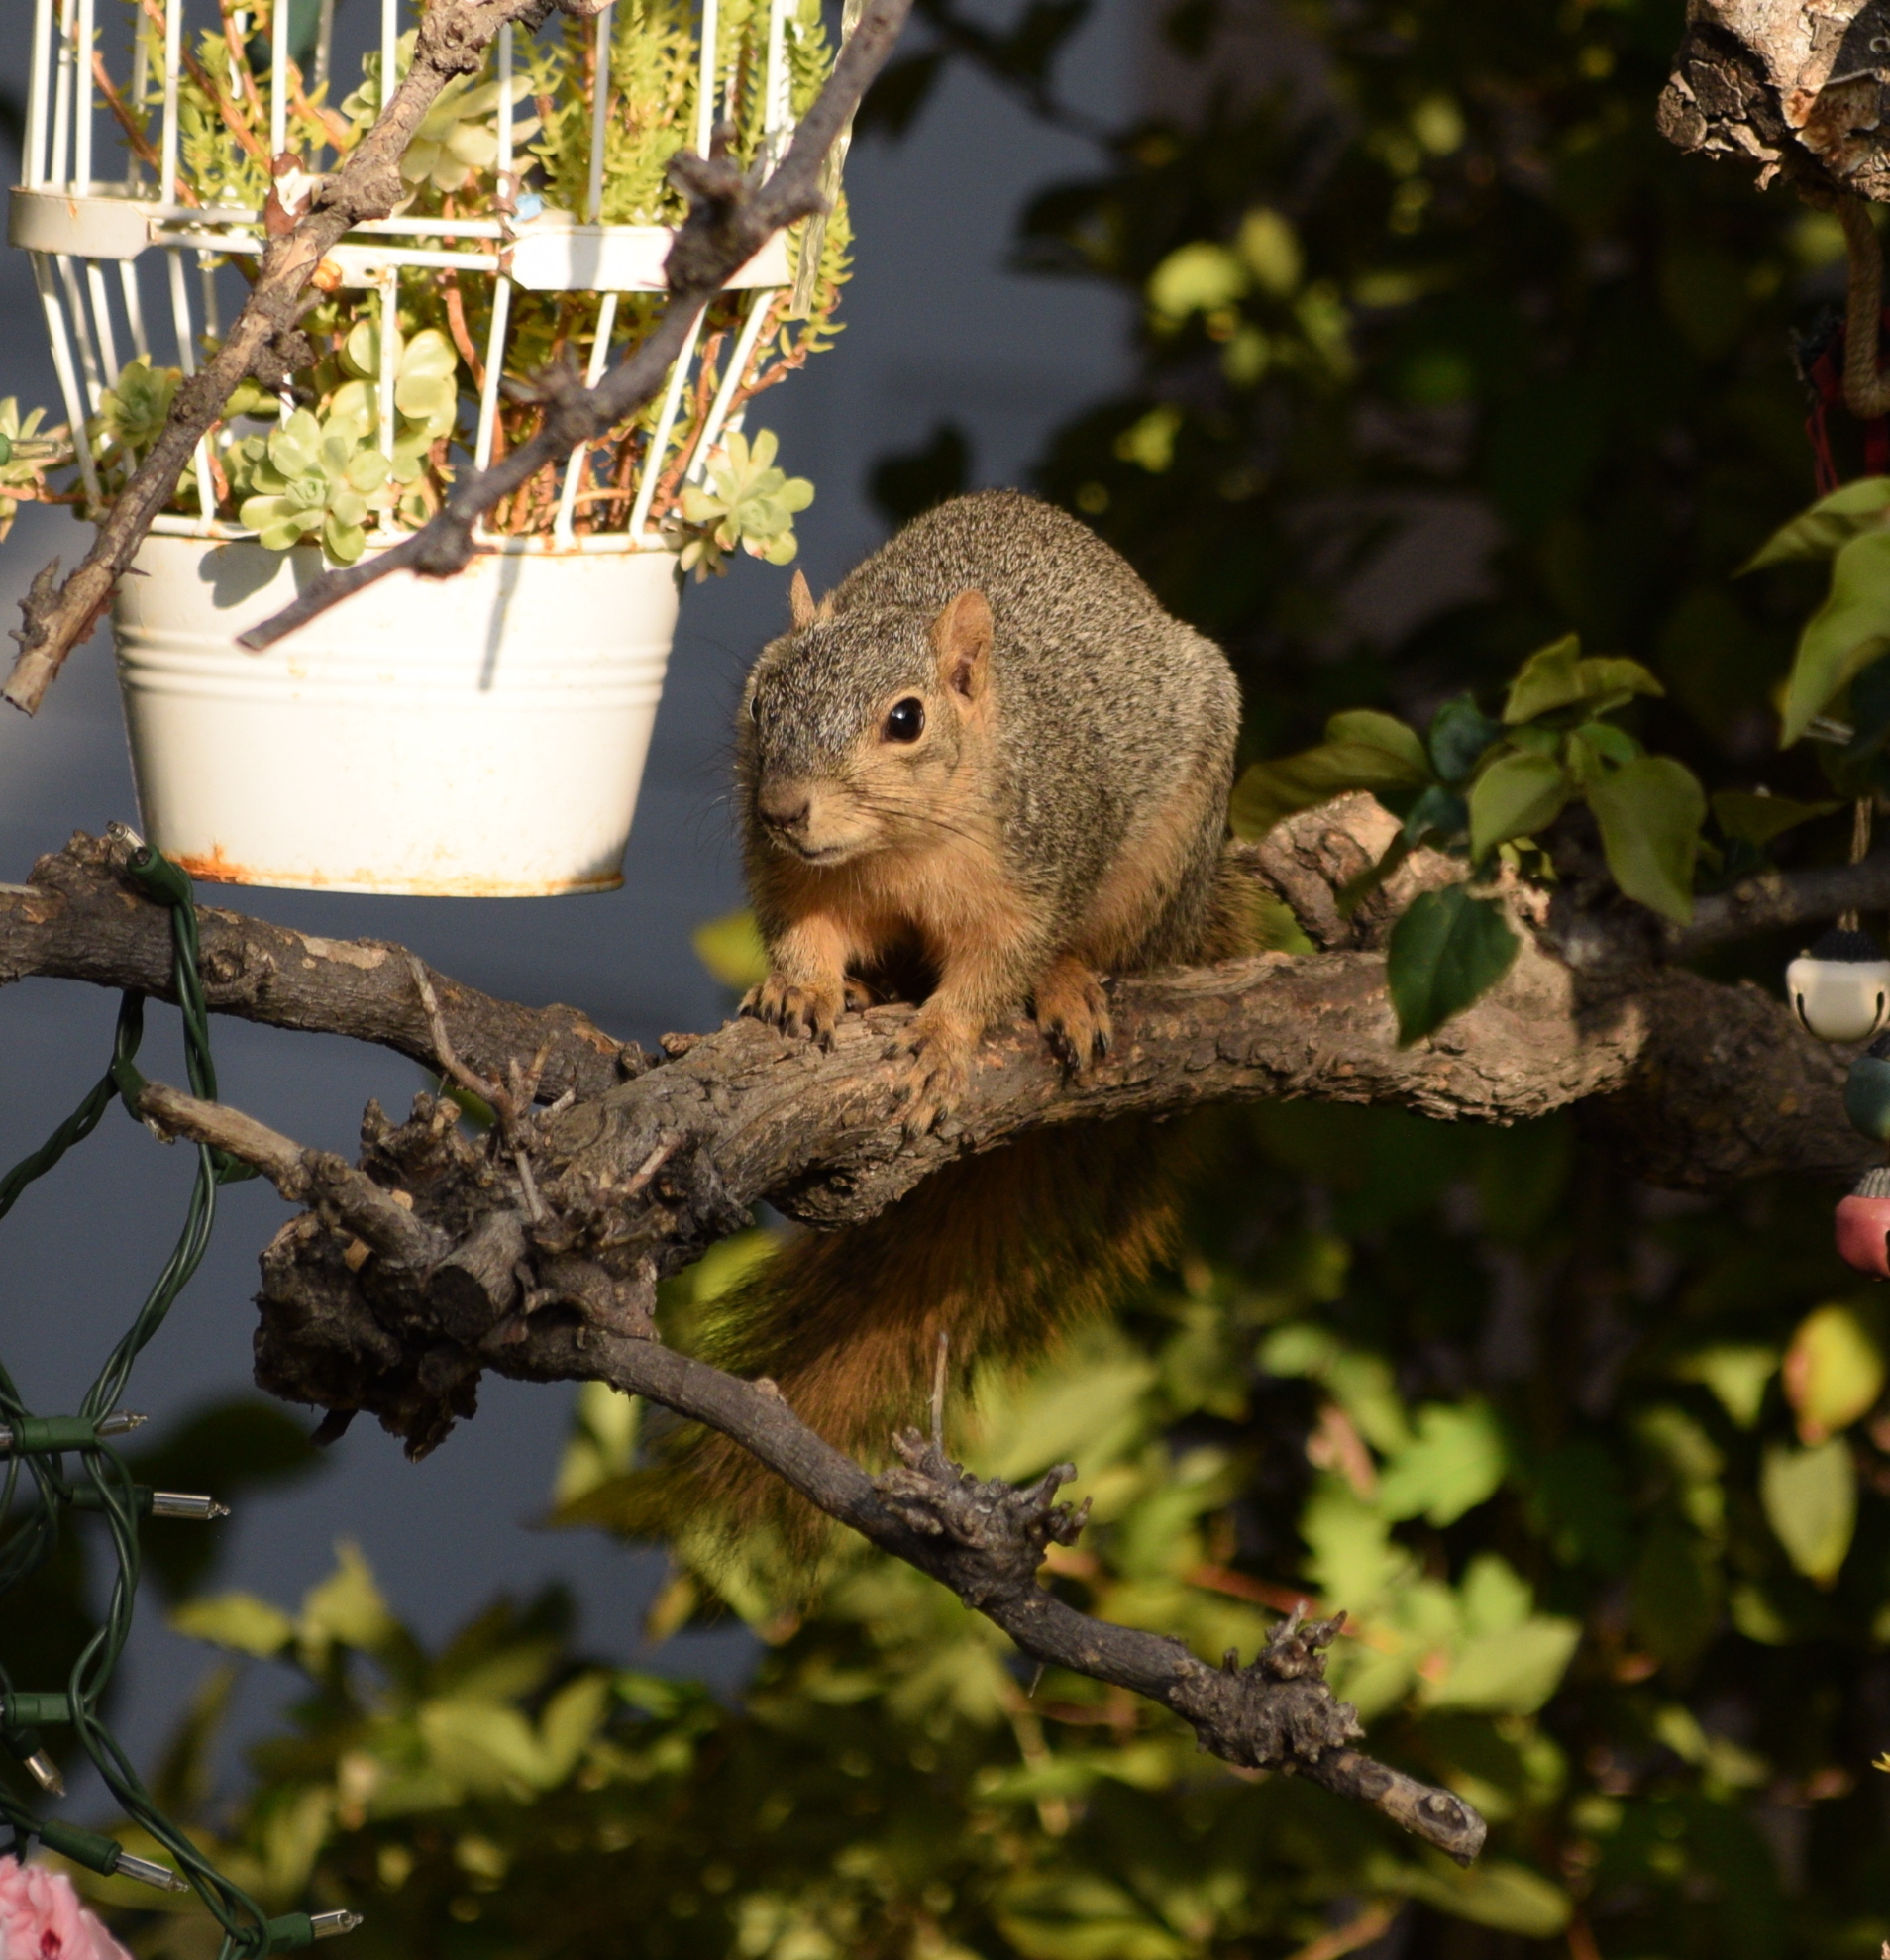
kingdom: Animalia
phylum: Chordata
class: Mammalia
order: Rodentia
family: Sciuridae
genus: Sciurus
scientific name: Sciurus niger
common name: Fox squirrel
